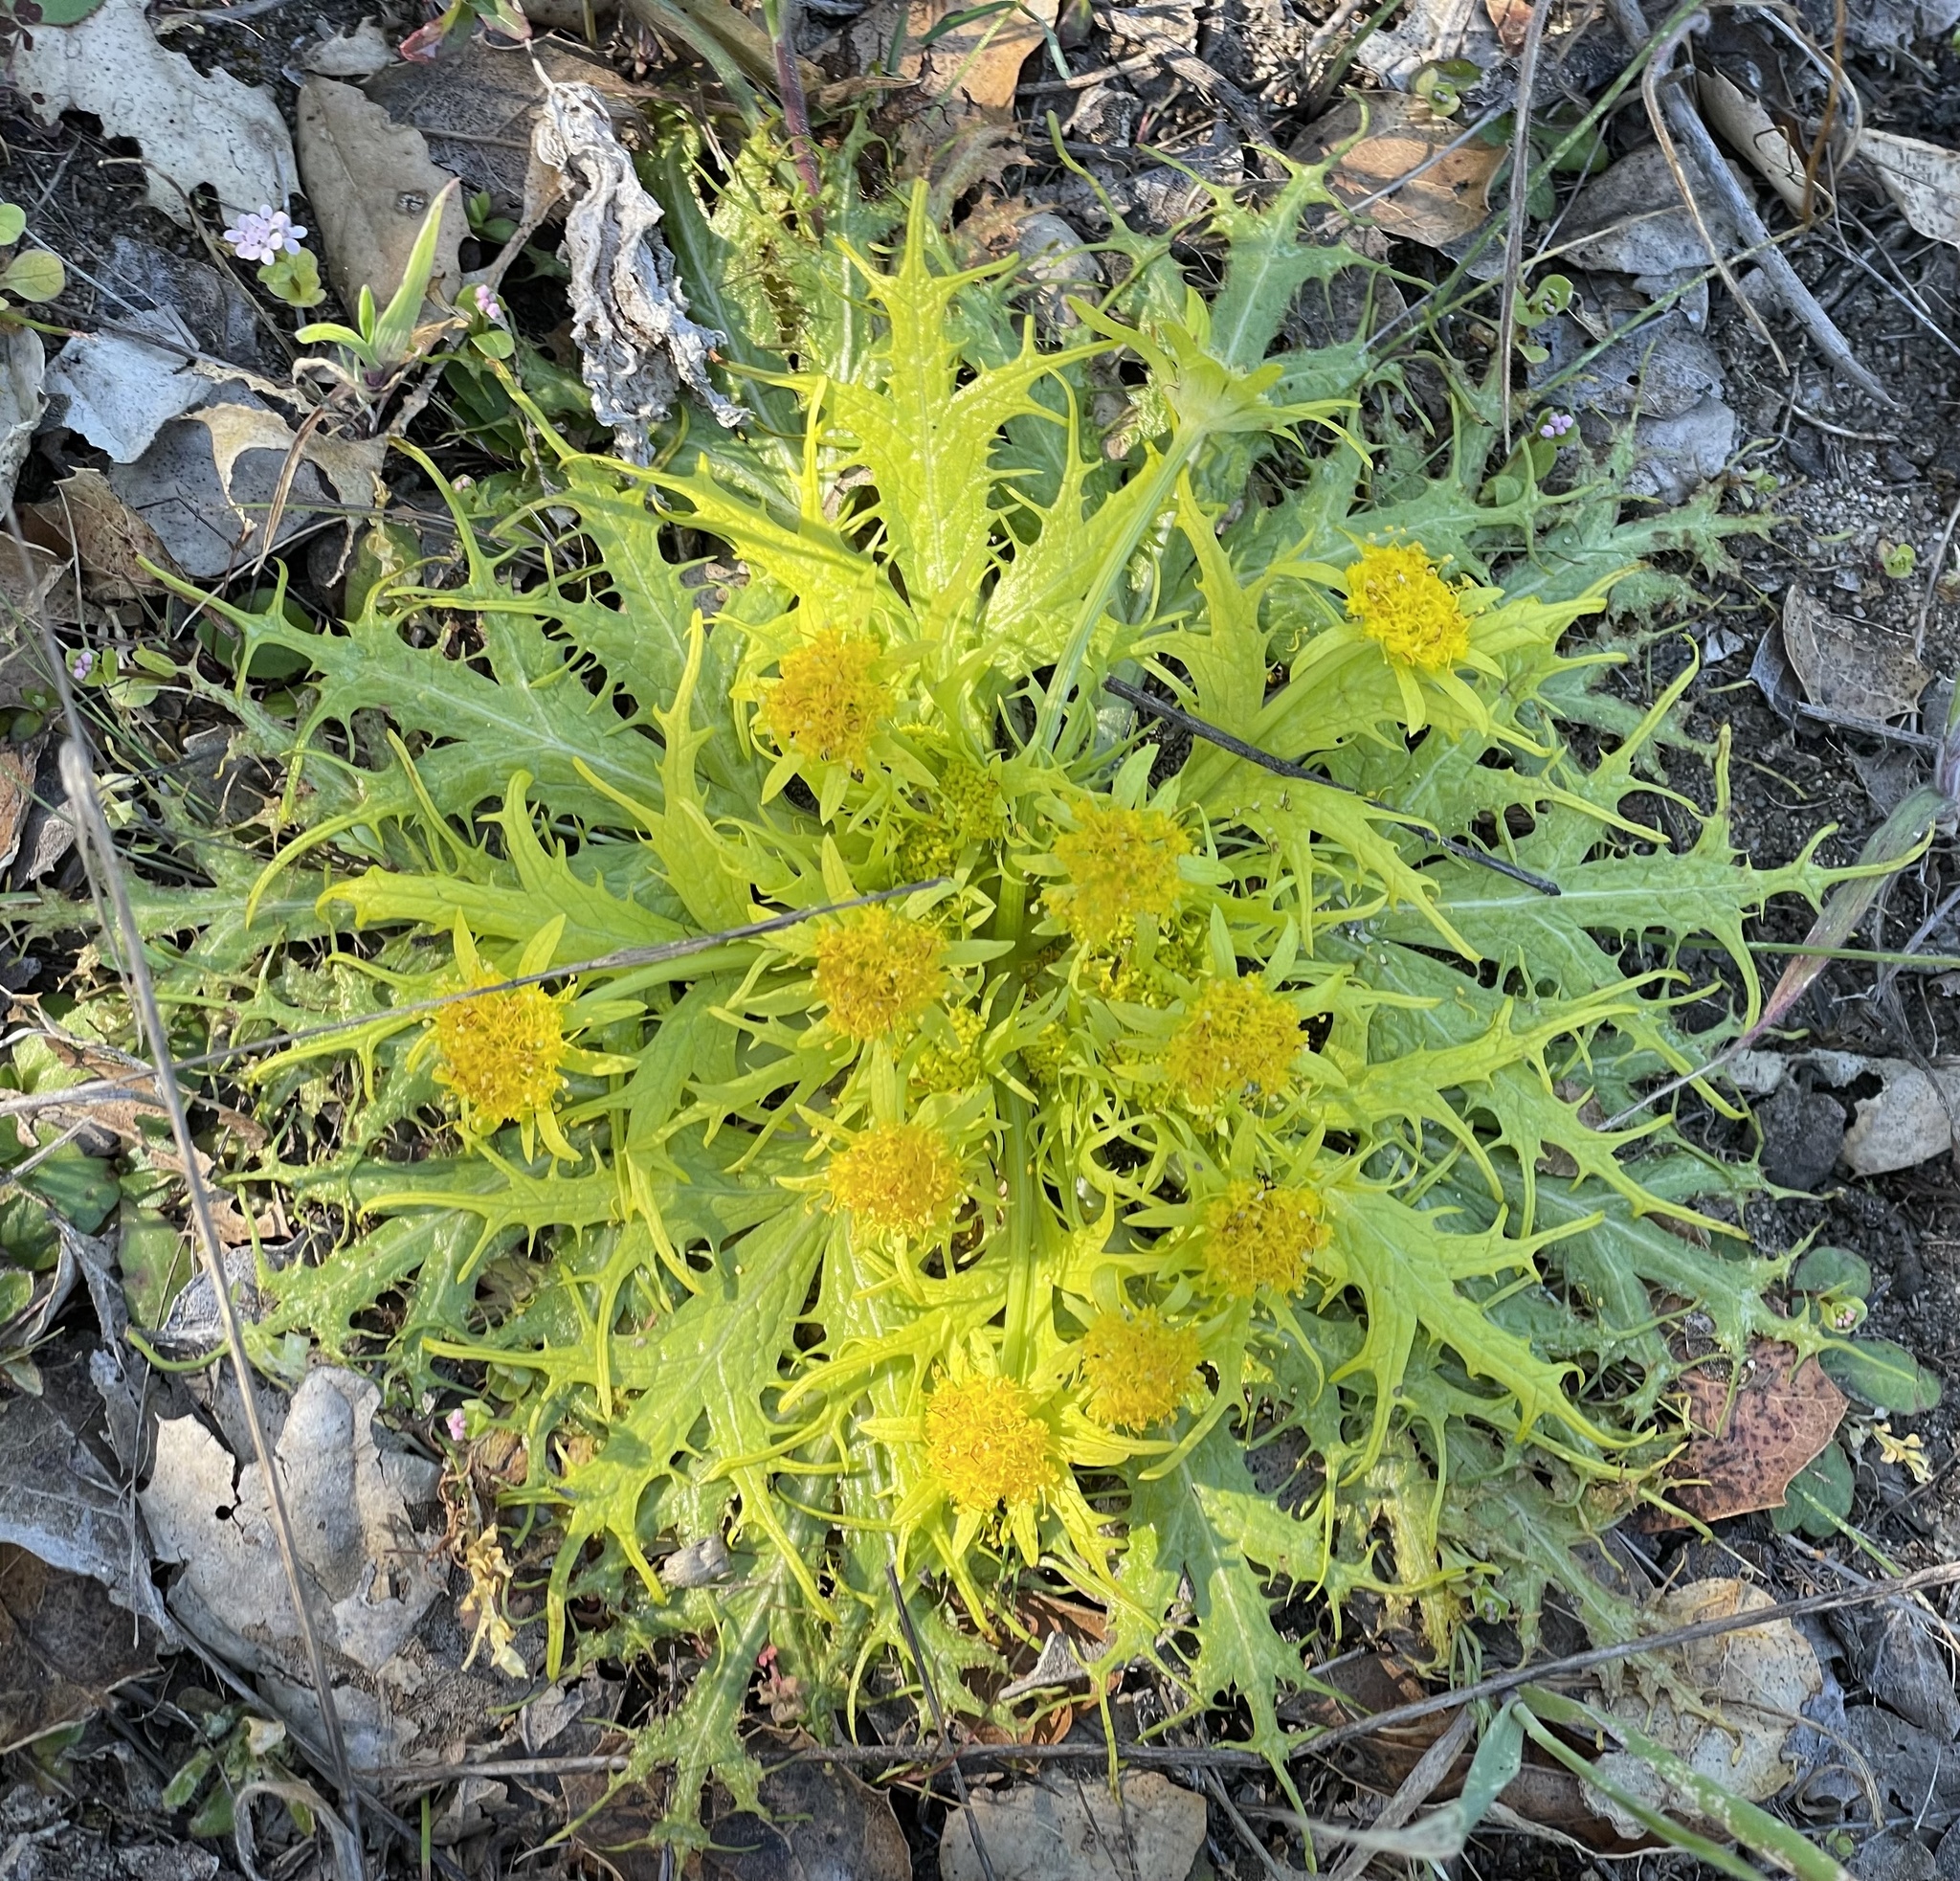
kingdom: Plantae
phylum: Tracheophyta
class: Magnoliopsida
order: Apiales
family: Apiaceae
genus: Sanicula
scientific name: Sanicula arctopoides
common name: Footsteps-of-spring
